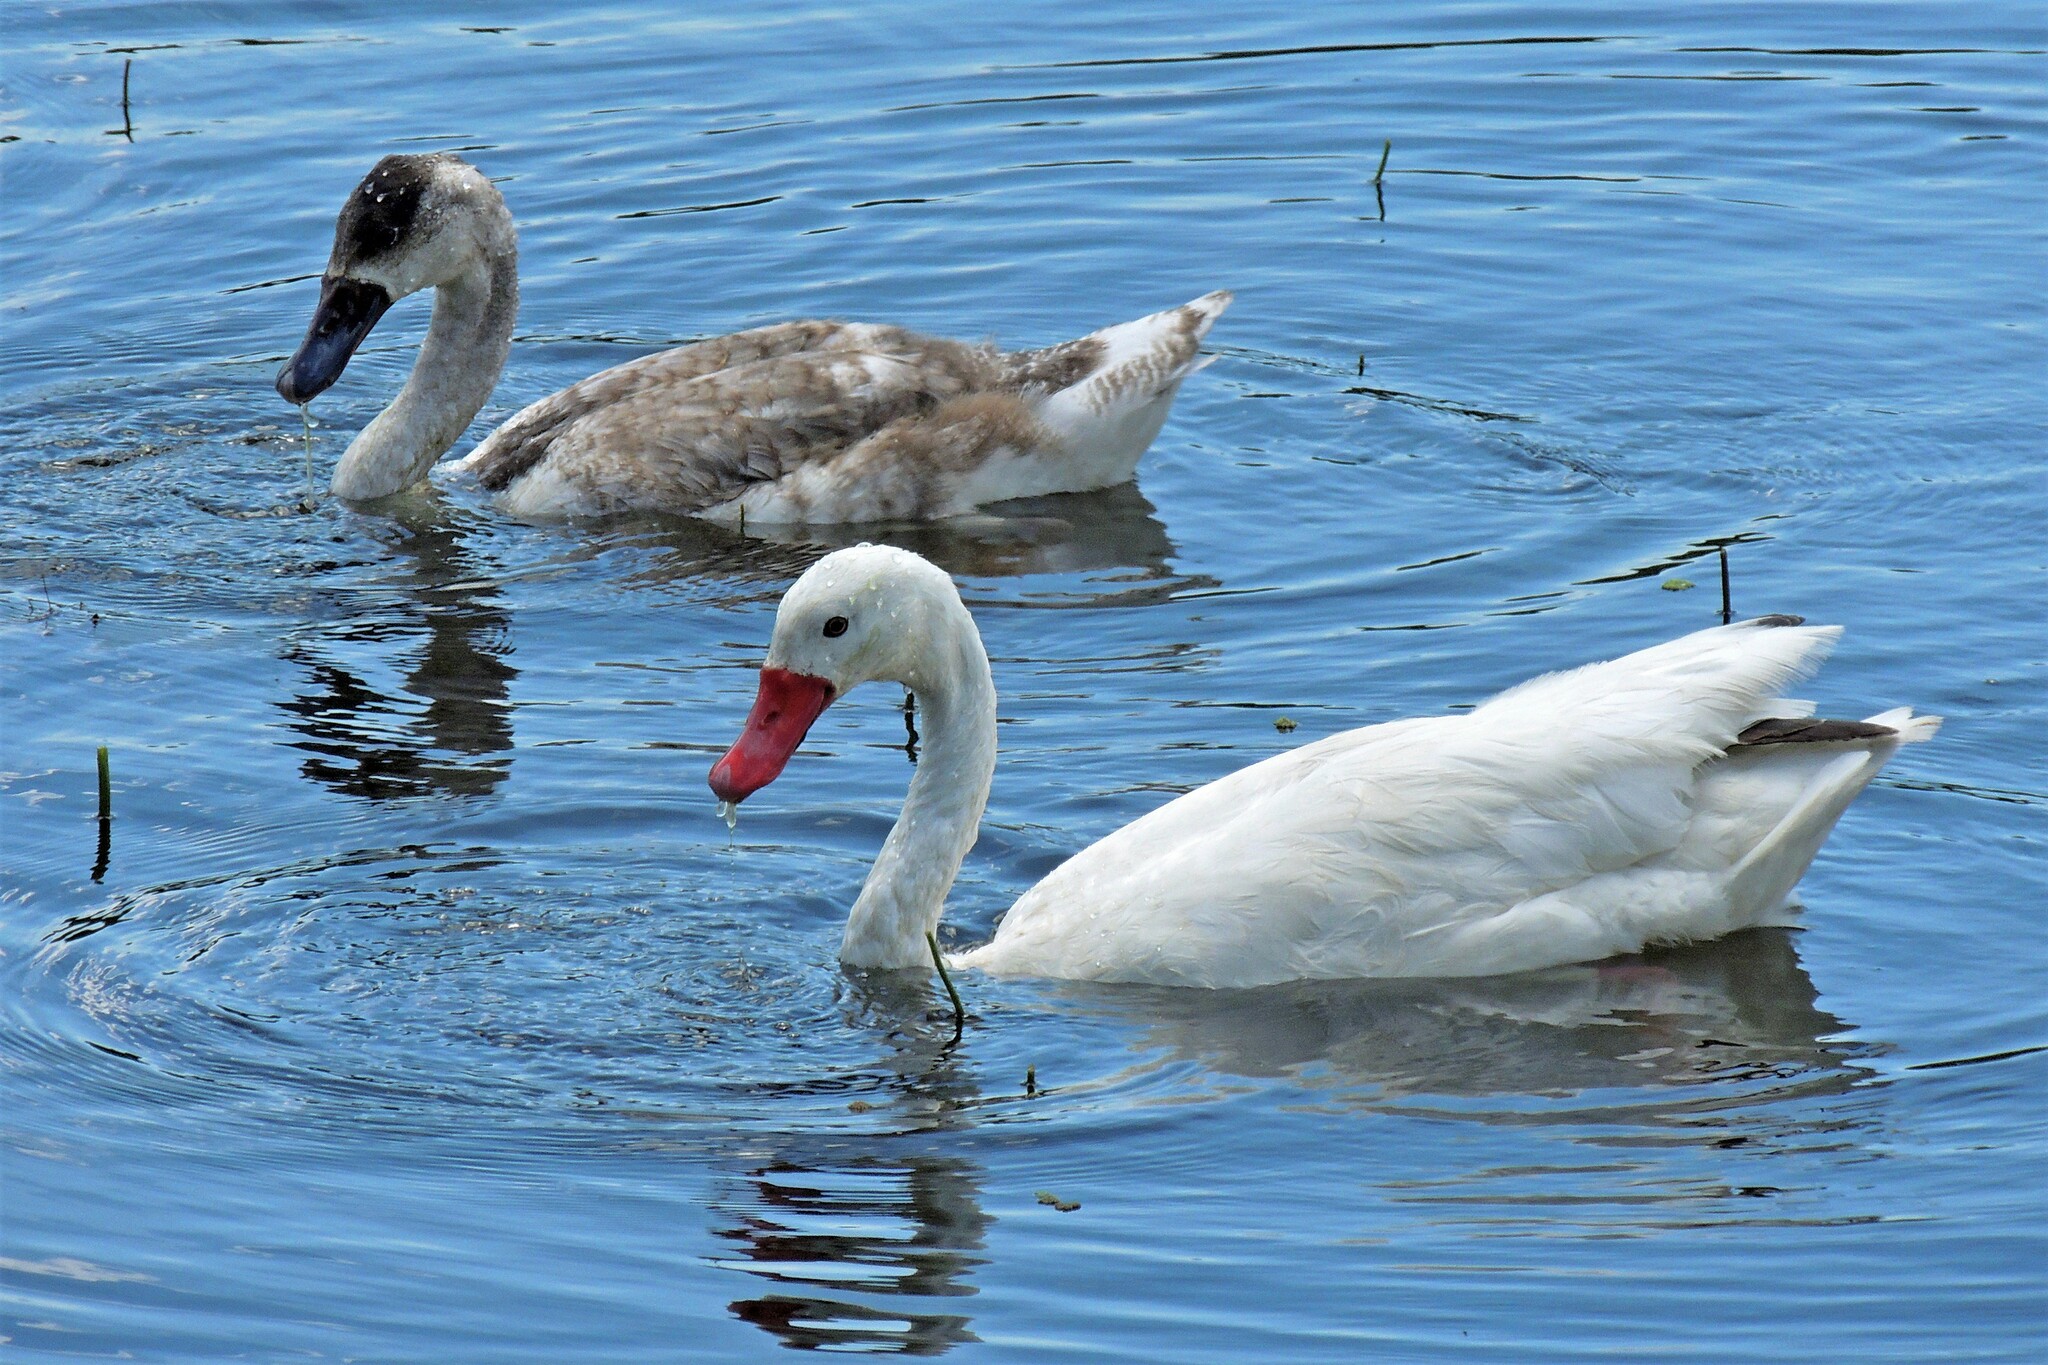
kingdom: Animalia
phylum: Chordata
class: Aves
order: Anseriformes
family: Anatidae
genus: Coscoroba
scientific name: Coscoroba coscoroba
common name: Coscoroba swan
